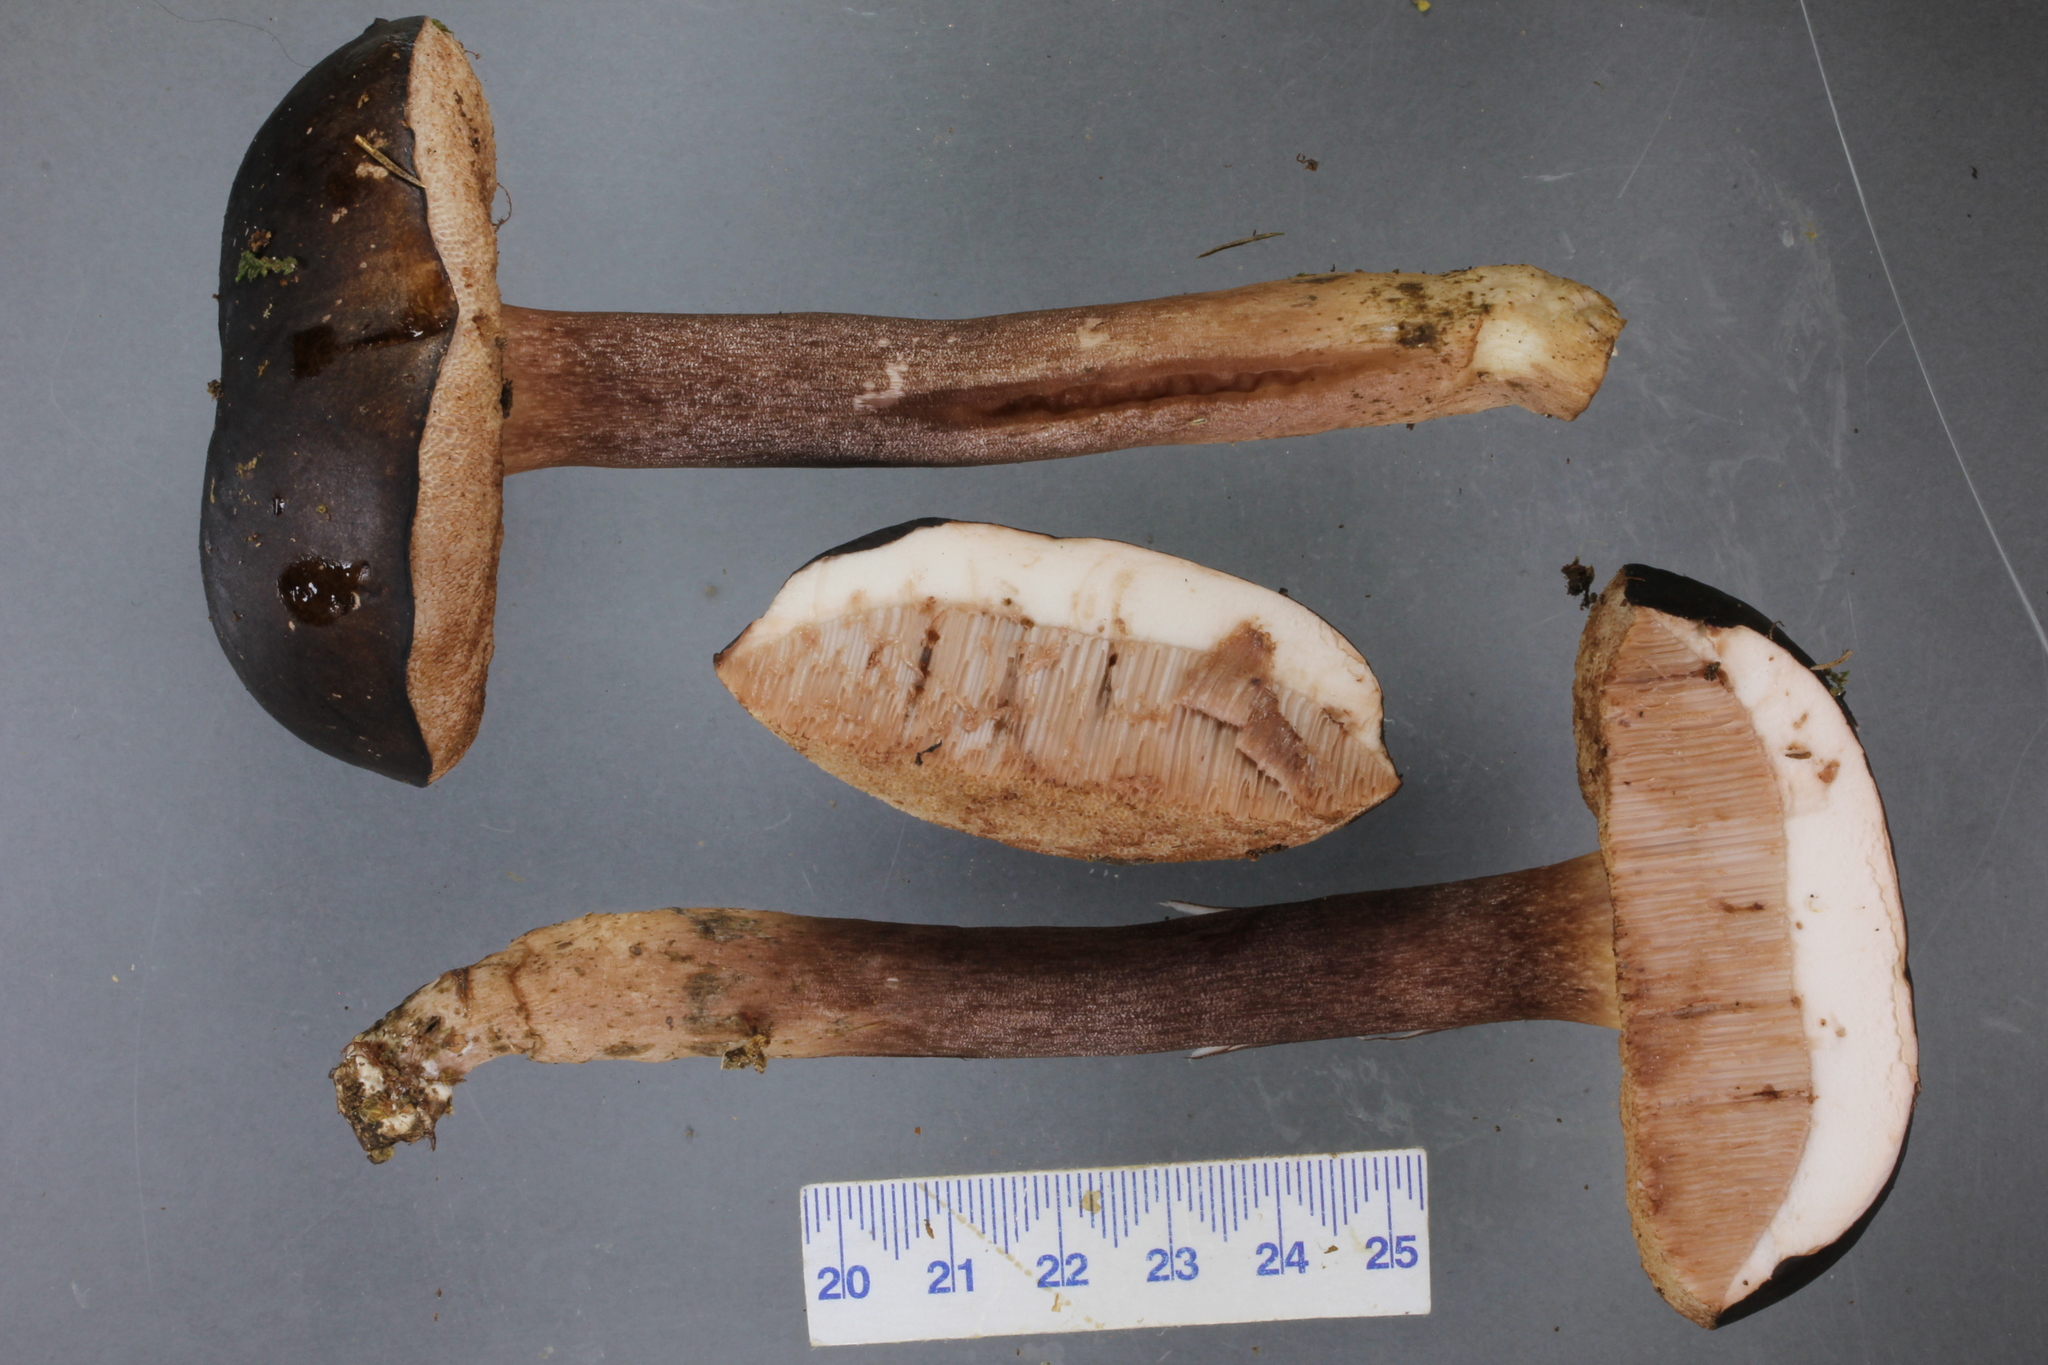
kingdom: Fungi
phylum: Basidiomycota
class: Agaricomycetes
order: Boletales
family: Boletaceae
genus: Porphyrellus
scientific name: Porphyrellus formosus
